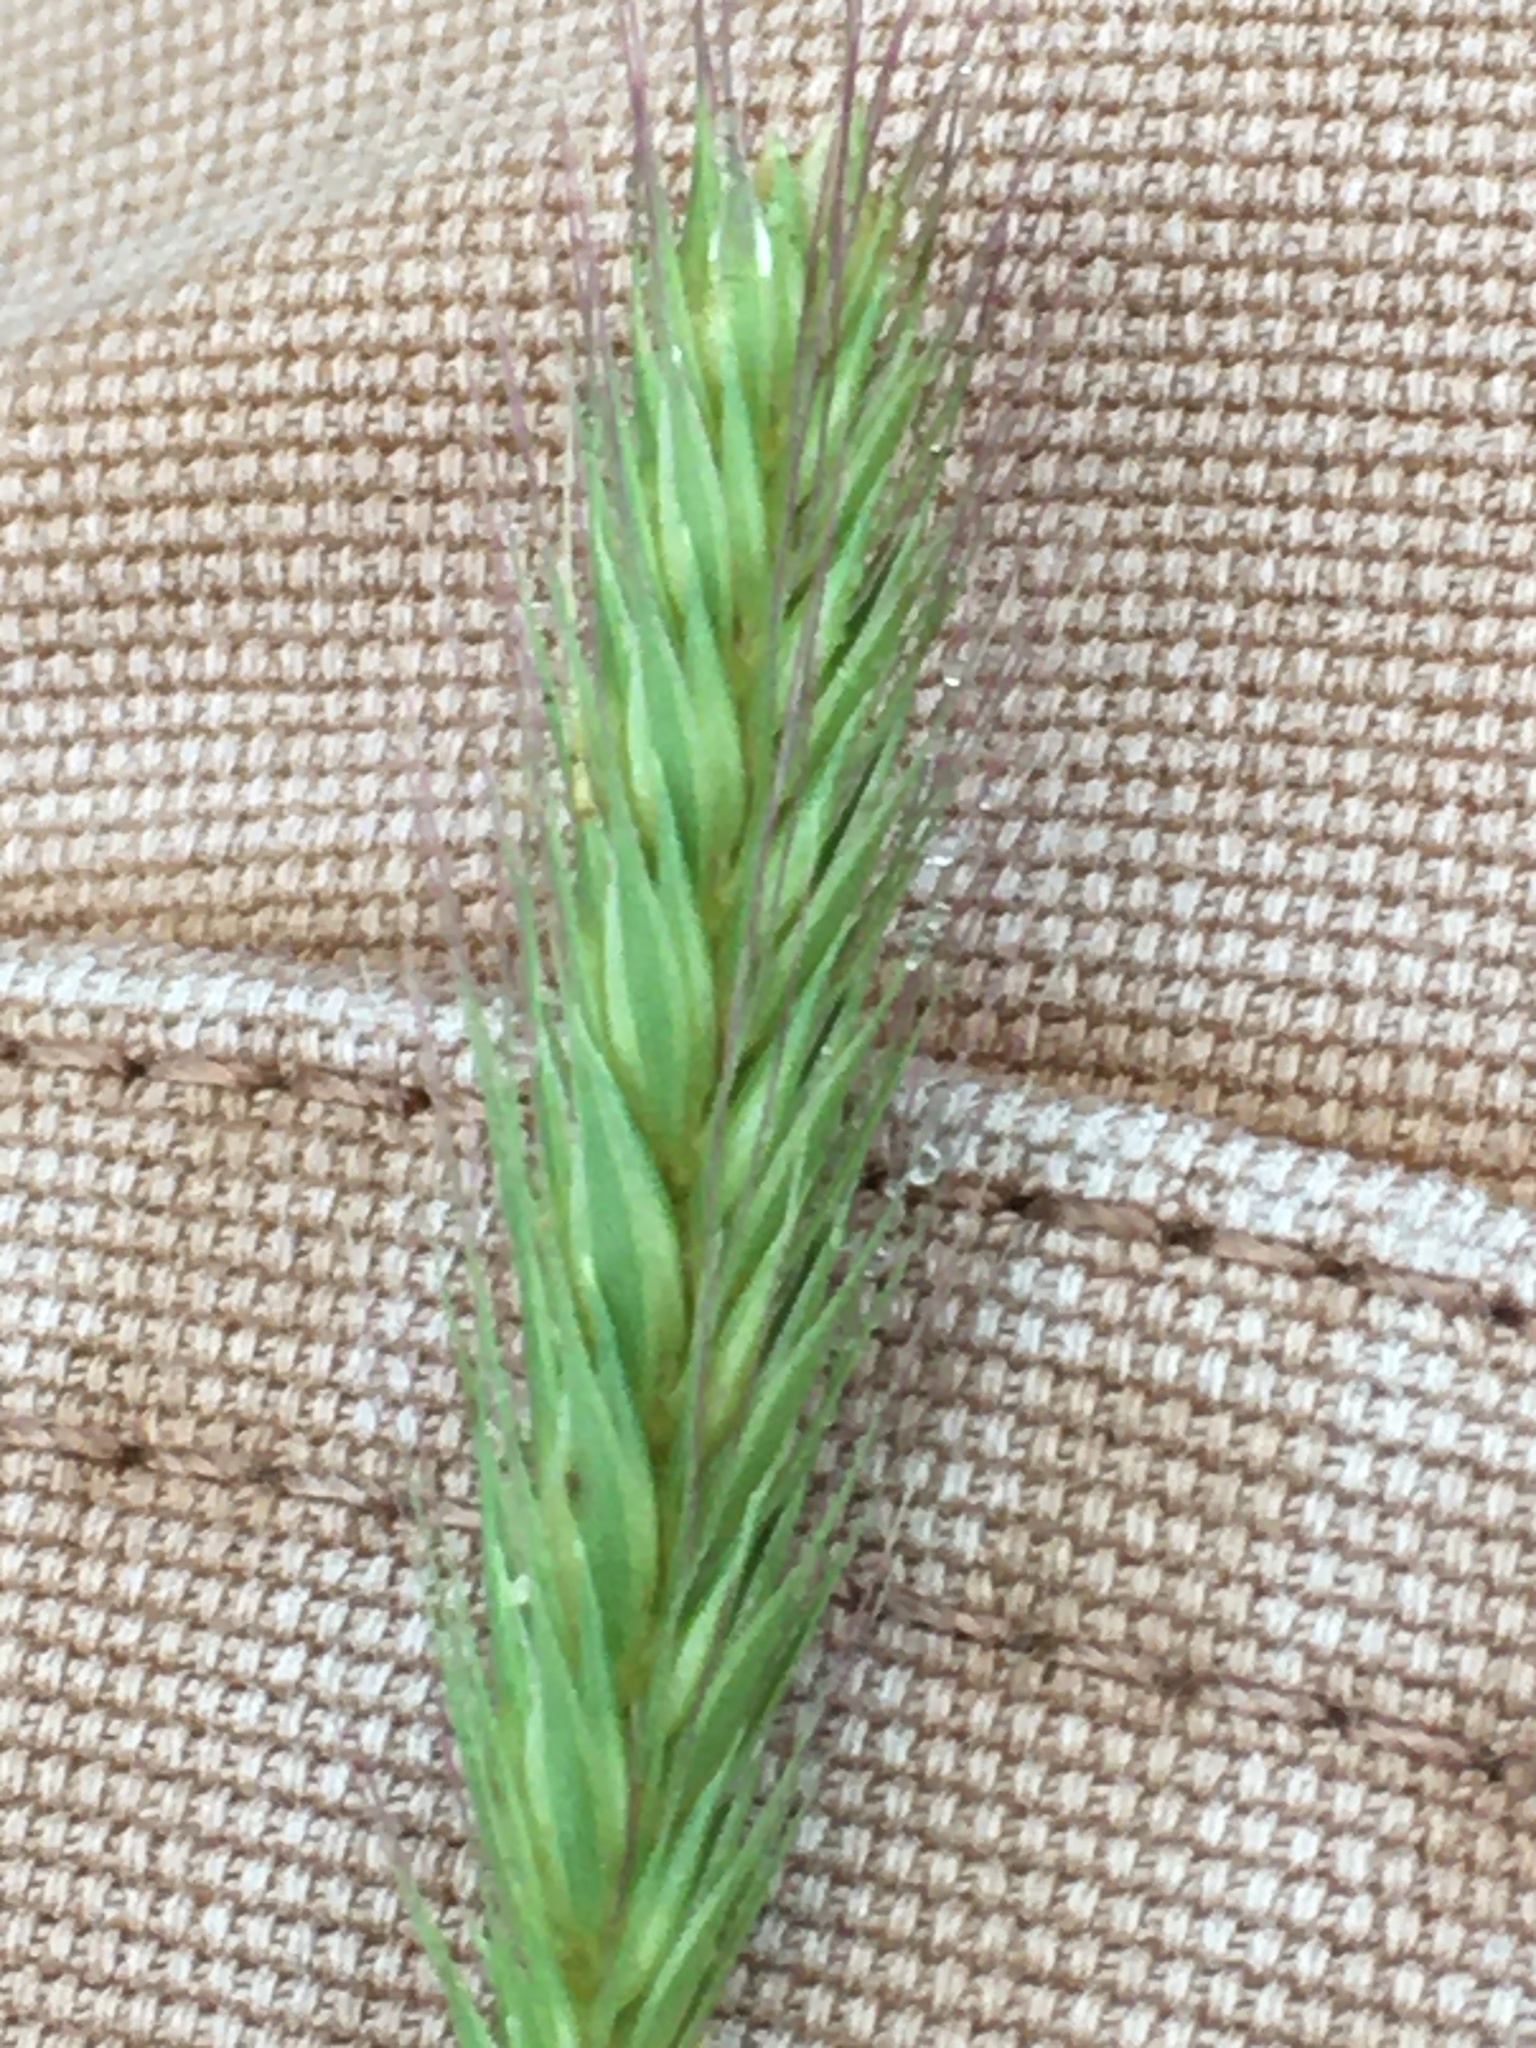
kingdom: Plantae
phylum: Tracheophyta
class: Liliopsida
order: Poales
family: Poaceae
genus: Hordeum
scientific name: Hordeum pusillum
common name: Little barley
